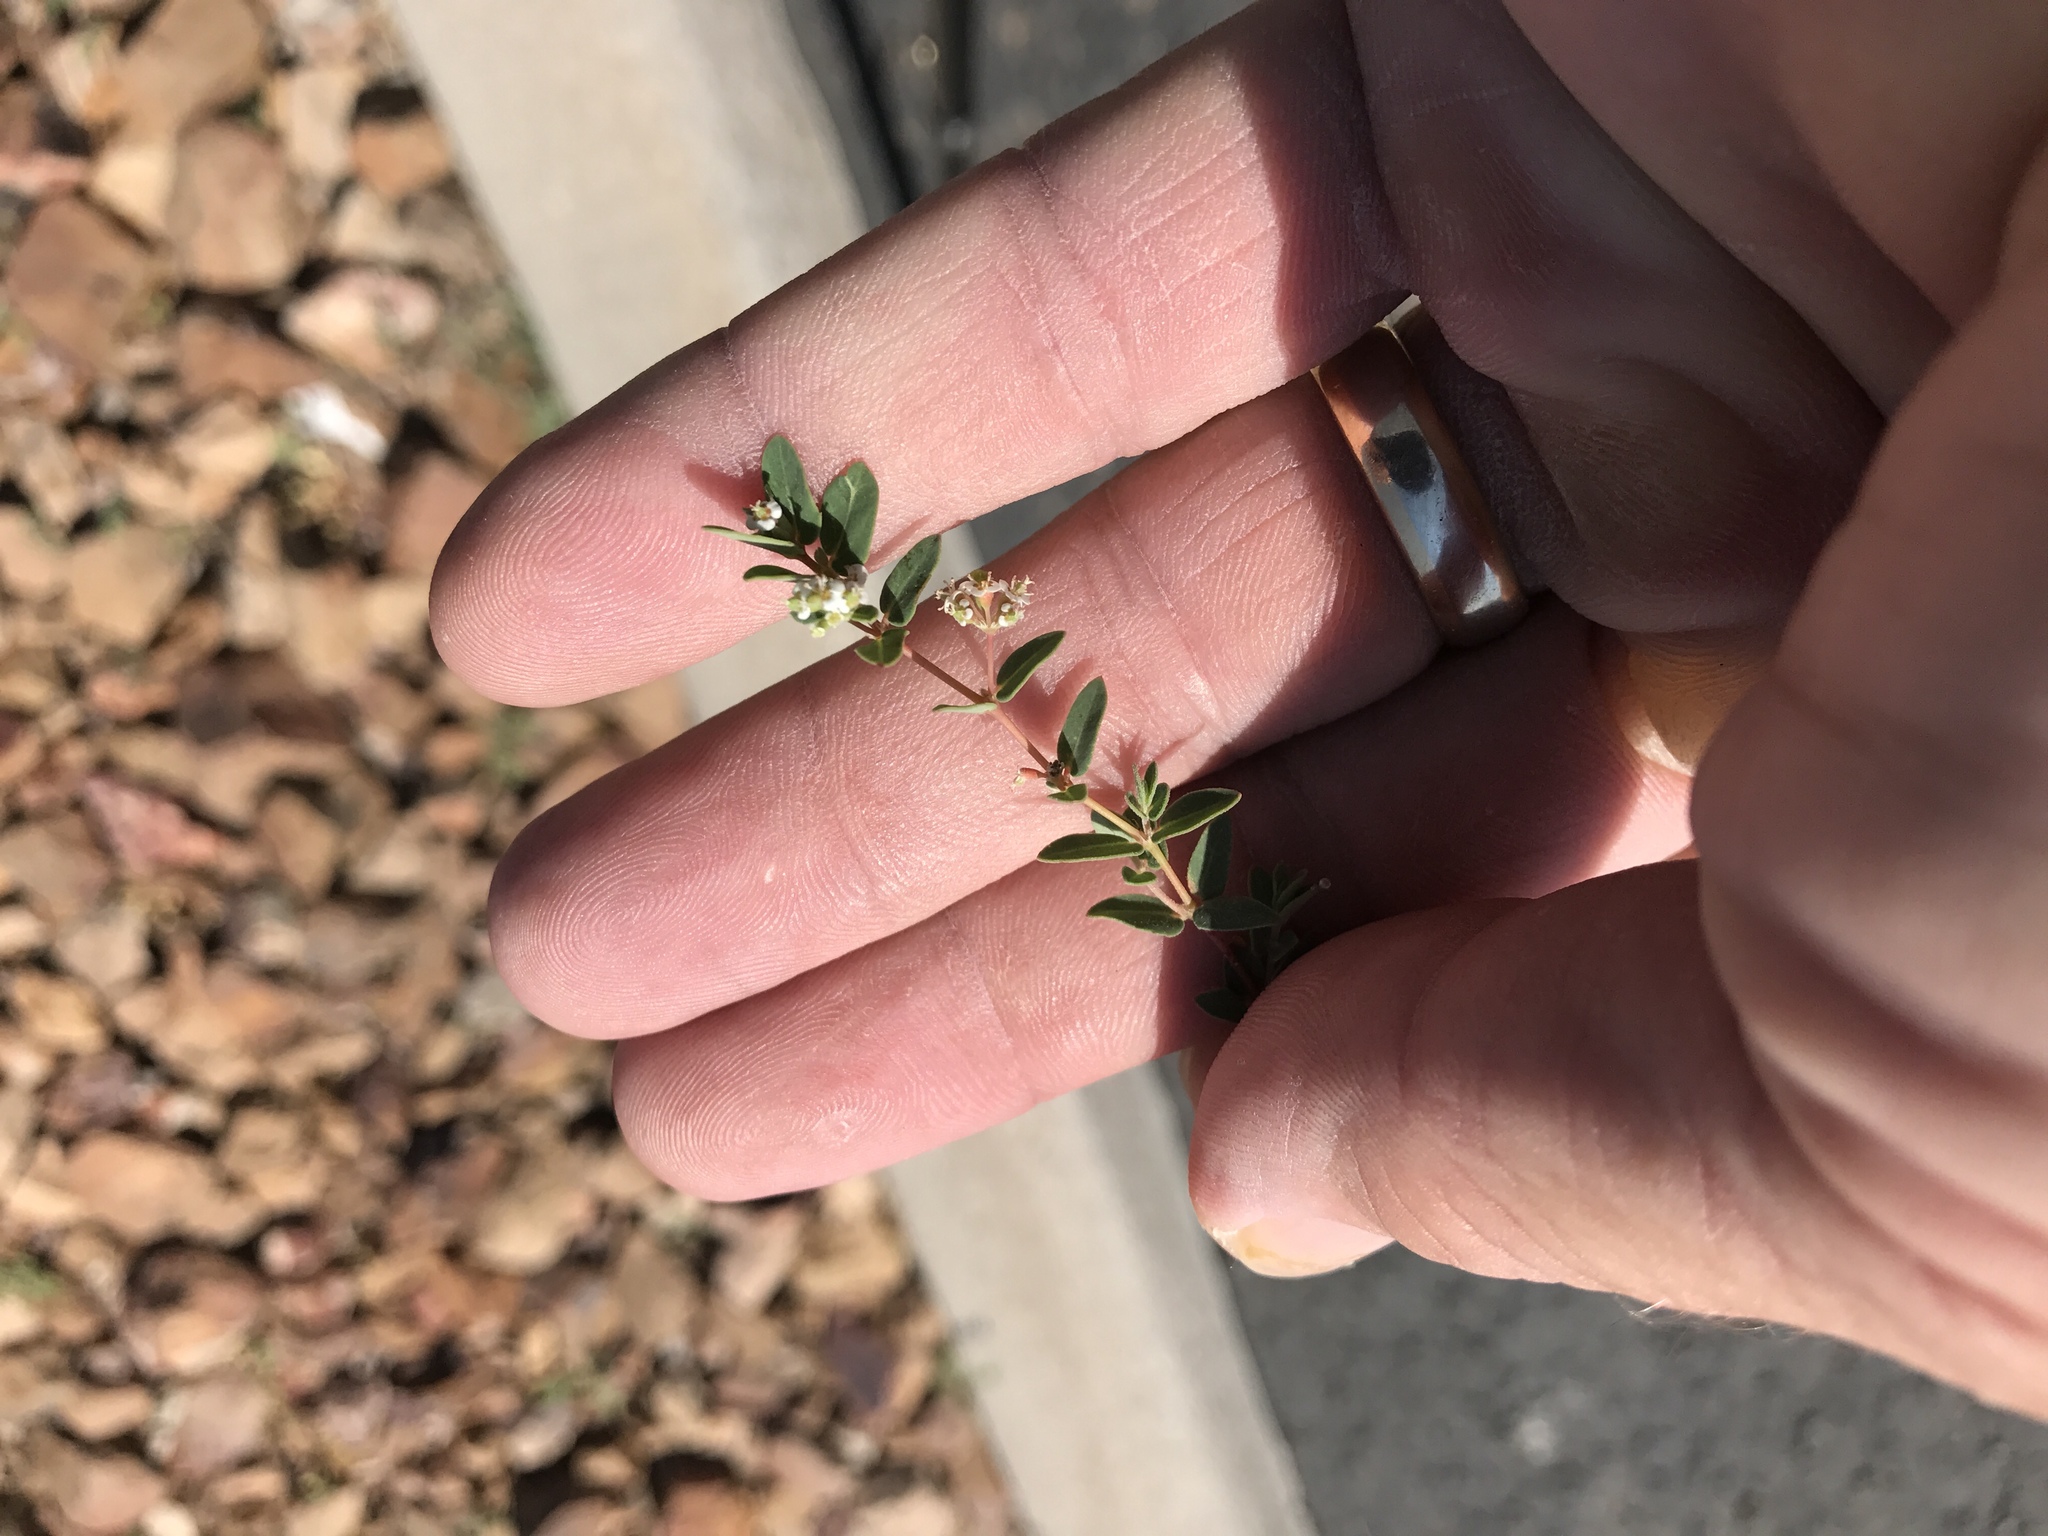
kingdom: Plantae
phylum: Tracheophyta
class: Magnoliopsida
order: Malpighiales
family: Euphorbiaceae
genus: Euphorbia
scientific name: Euphorbia capitellata
